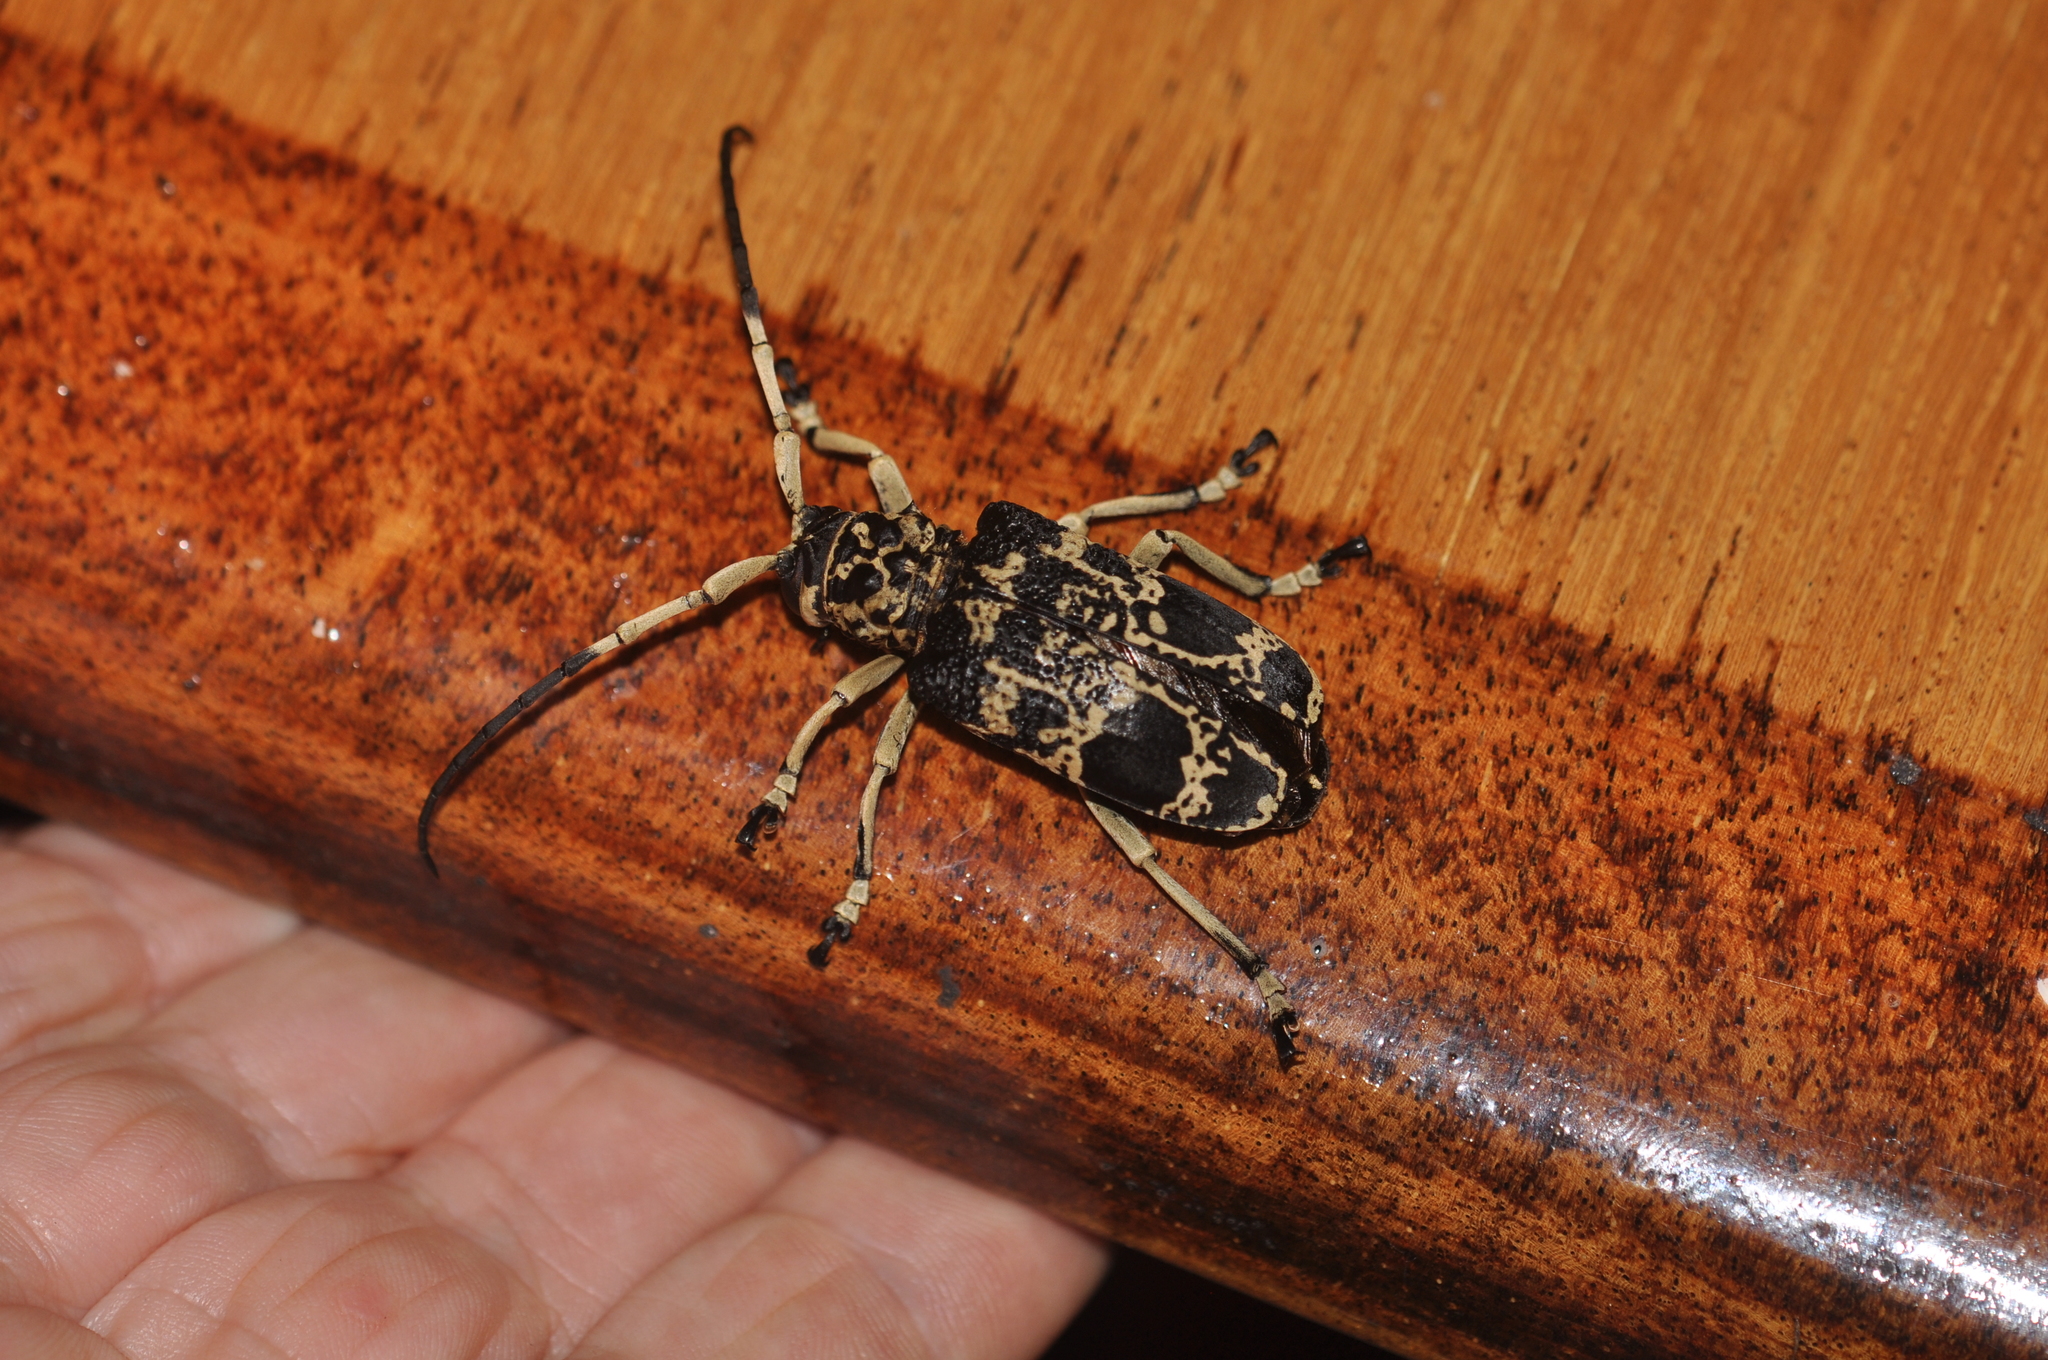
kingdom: Animalia
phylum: Arthropoda
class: Insecta
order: Coleoptera
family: Cerambycidae
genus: Phryneta
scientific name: Phryneta marmorea
